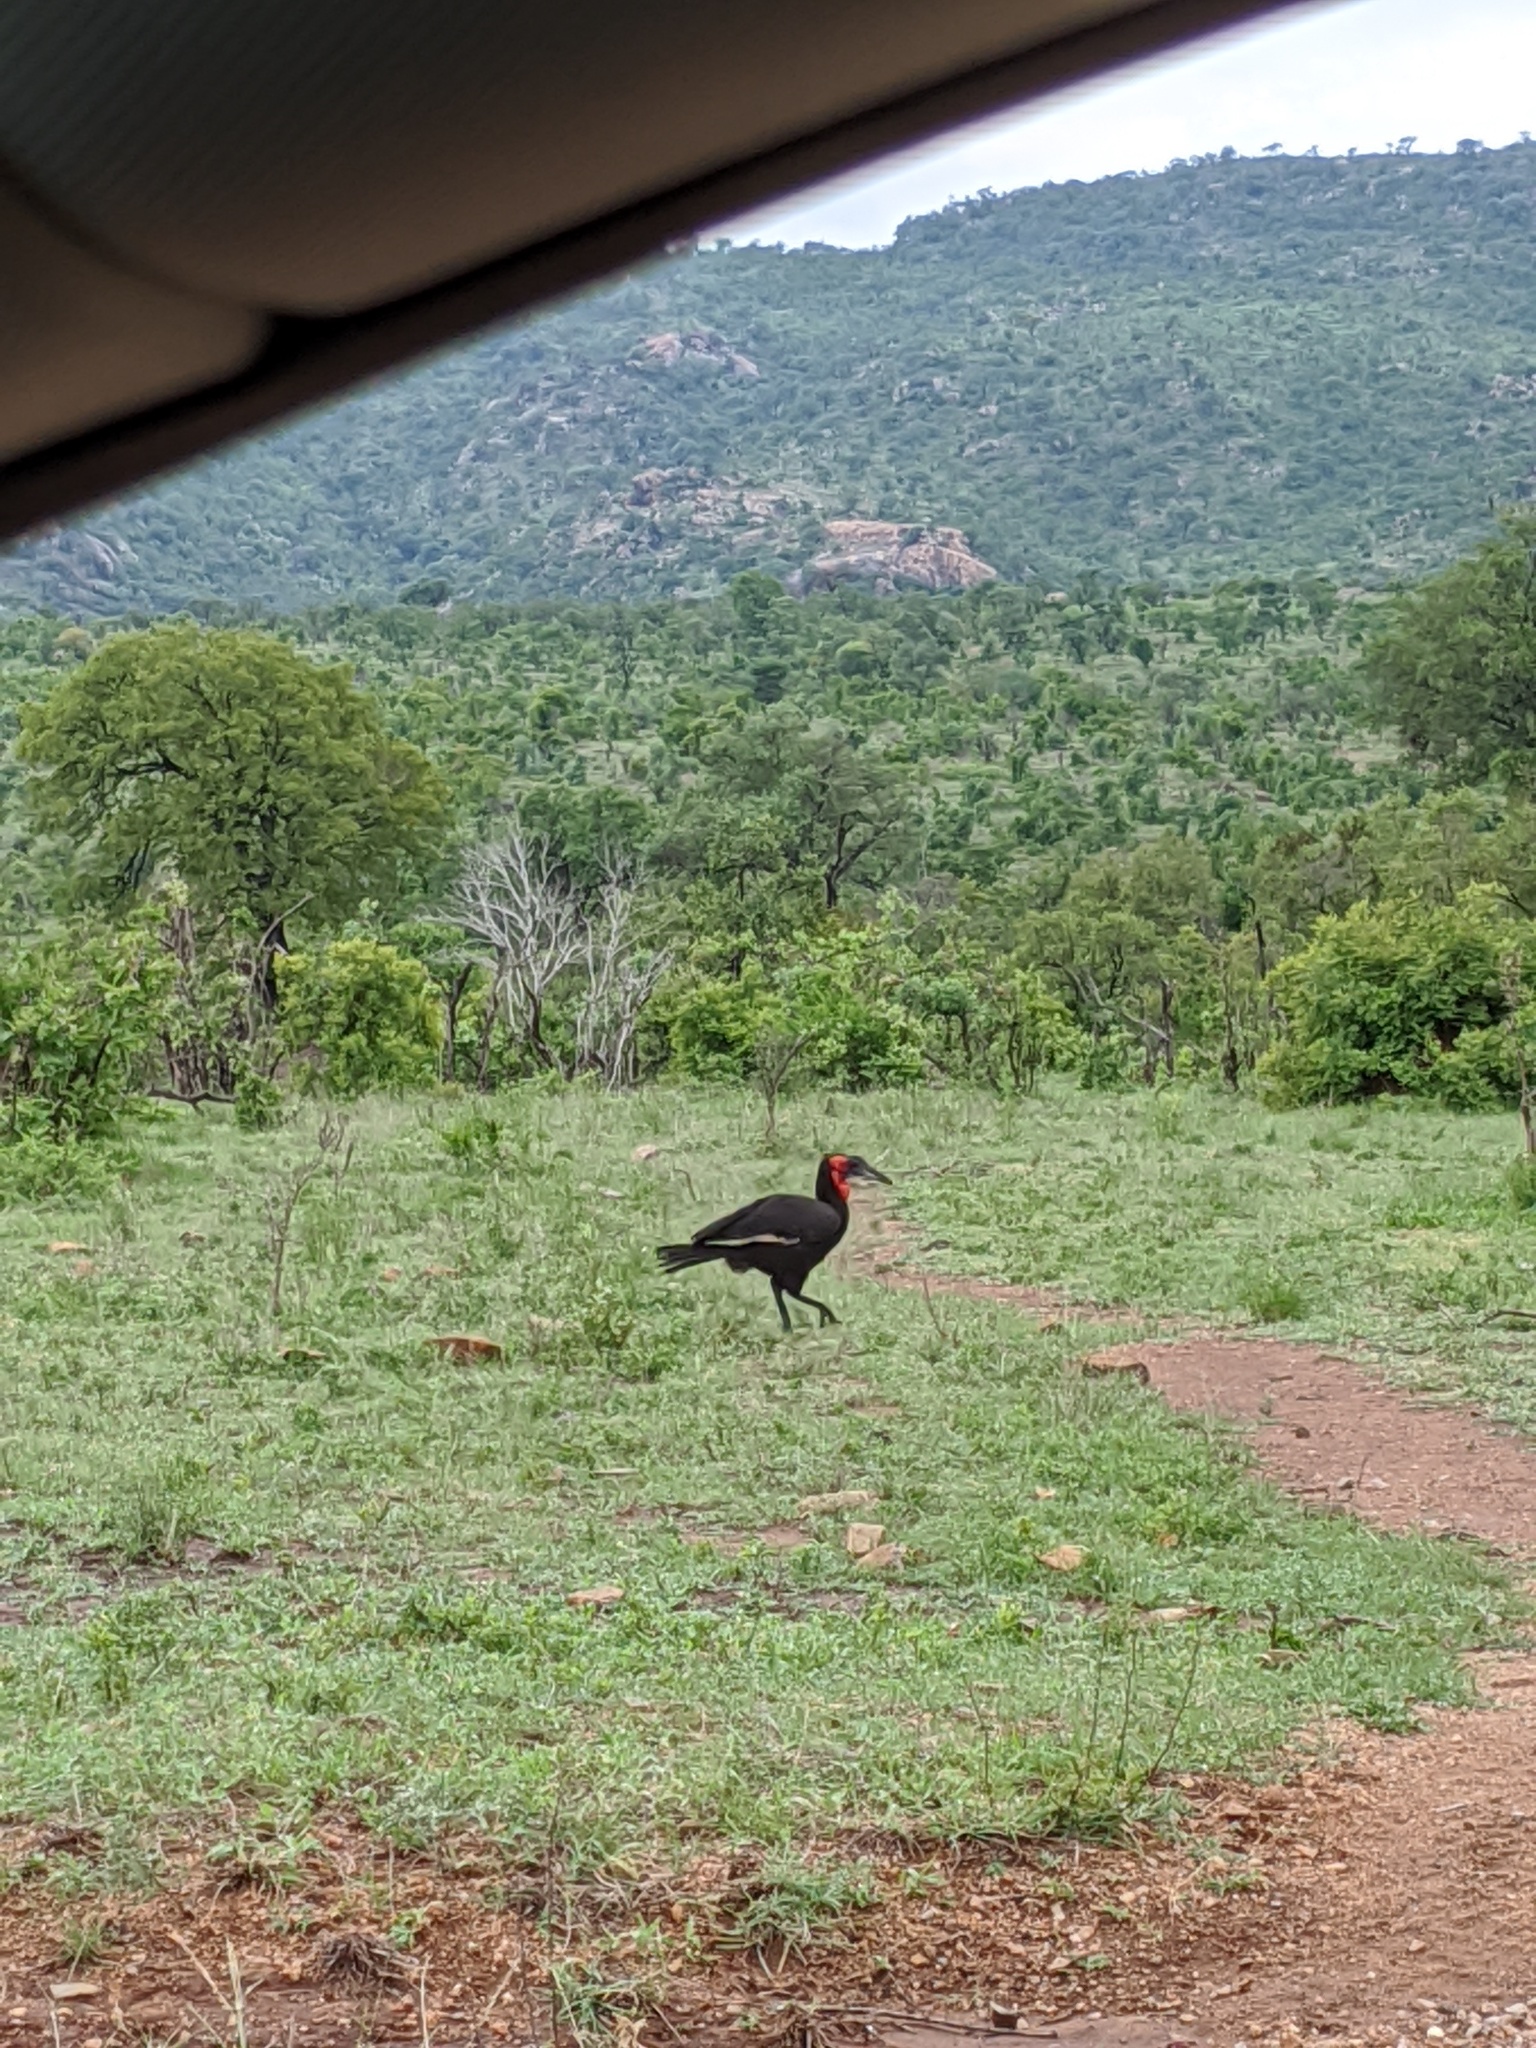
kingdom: Animalia
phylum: Chordata
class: Aves
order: Bucerotiformes
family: Bucorvidae
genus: Bucorvus
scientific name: Bucorvus leadbeateri
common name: Southern ground-hornbill
